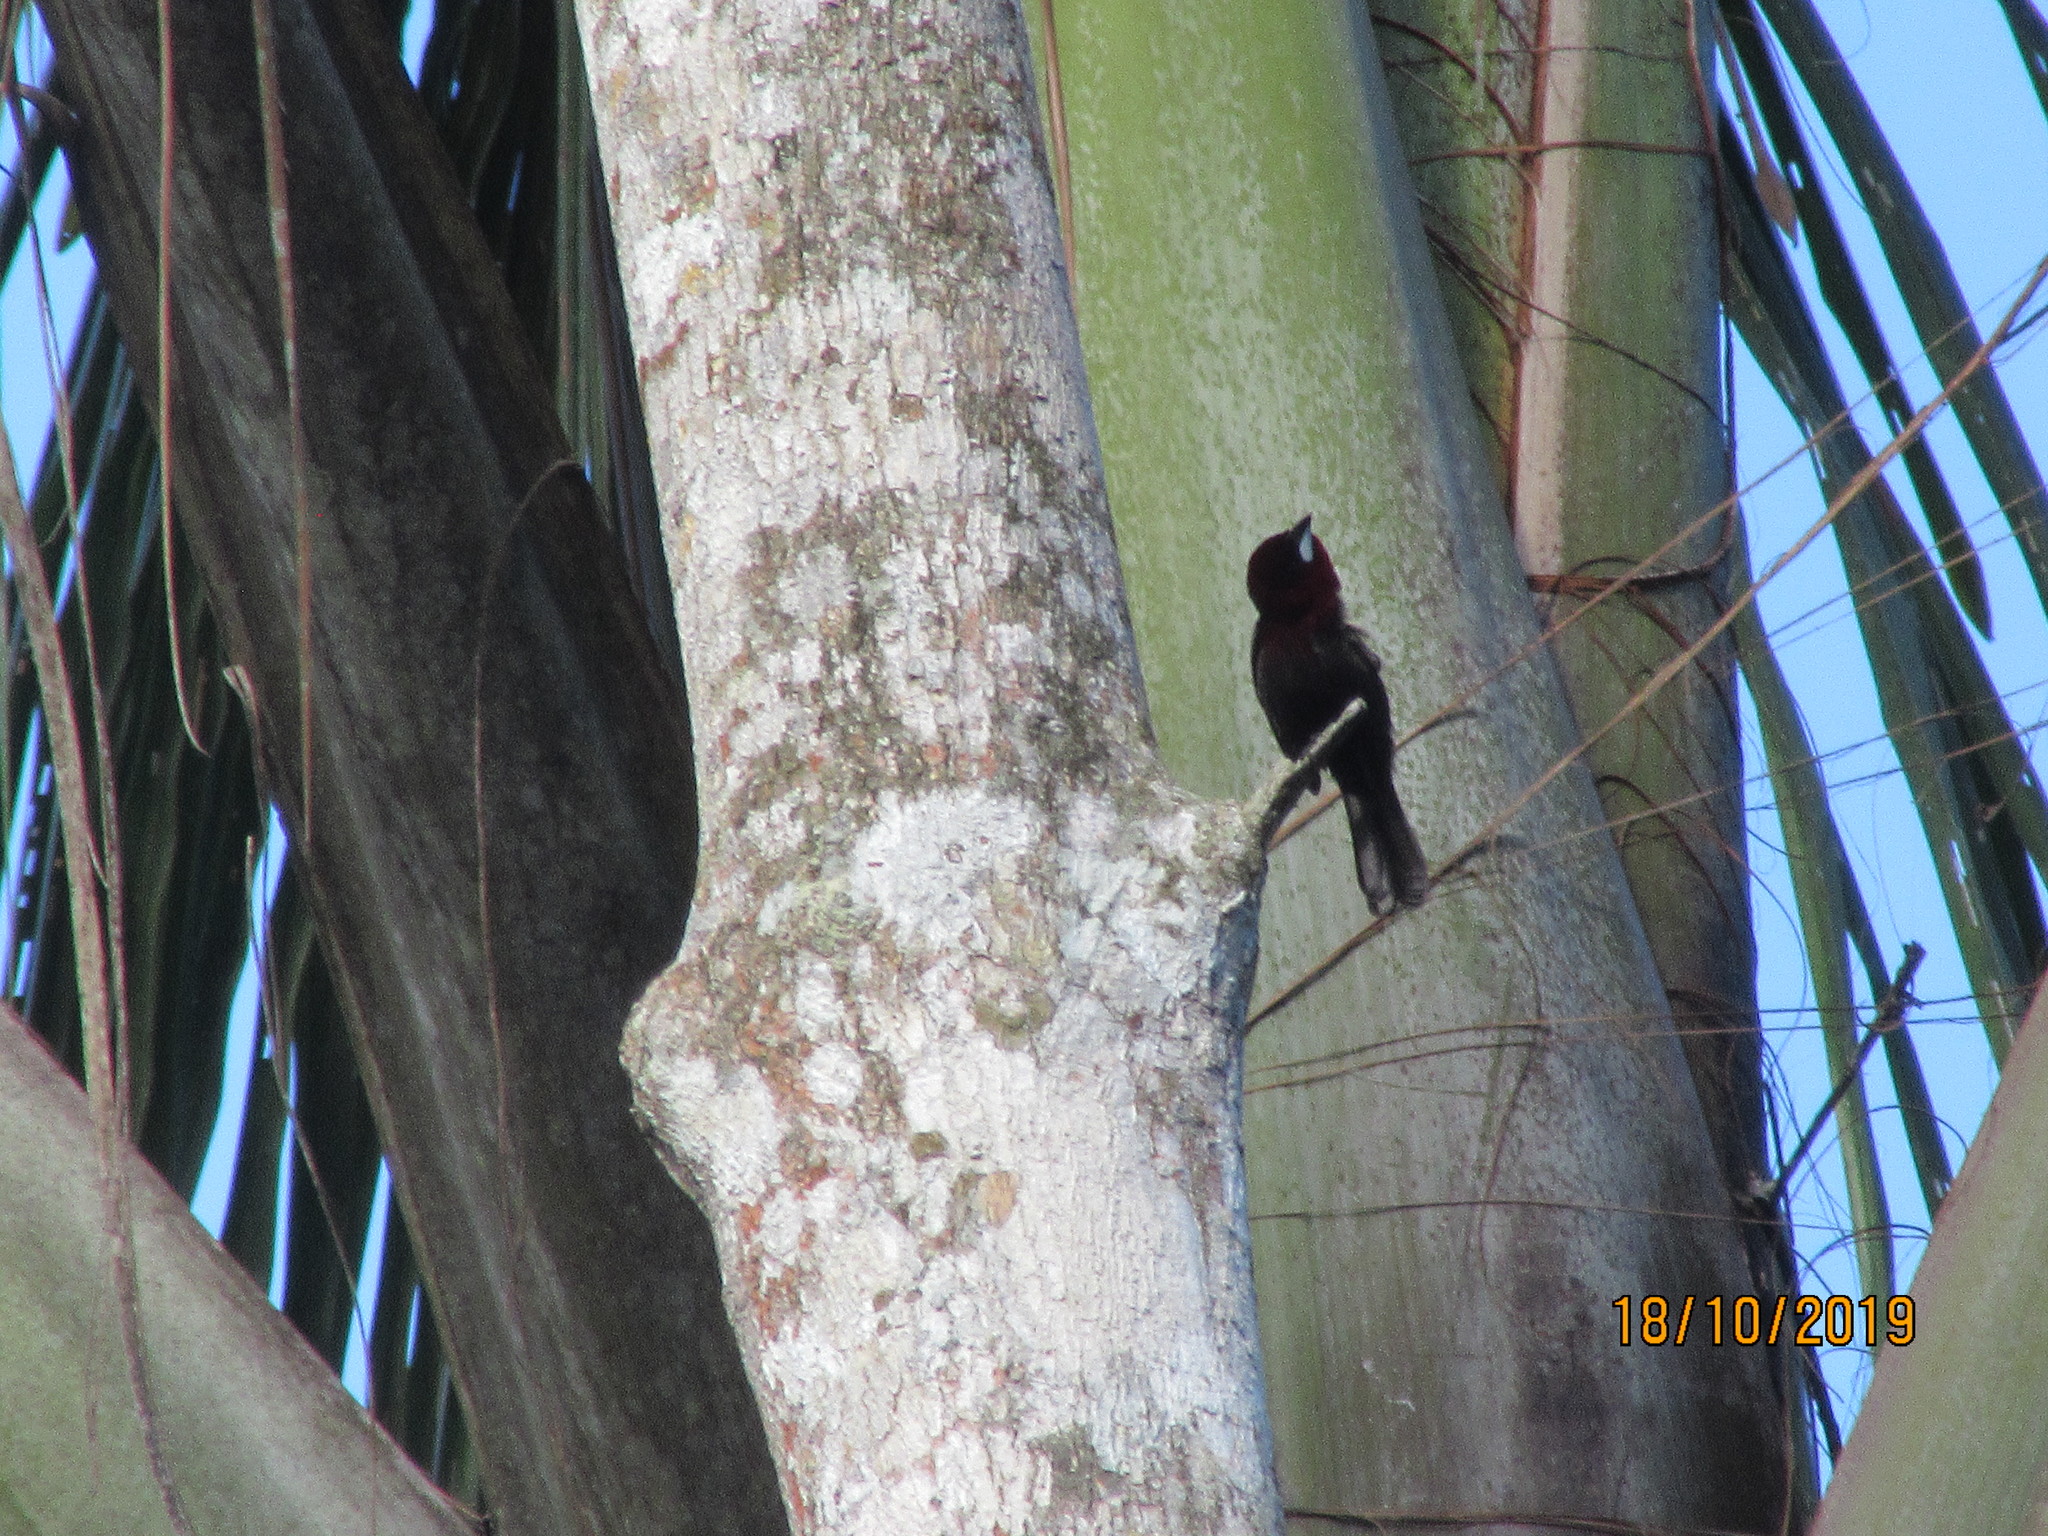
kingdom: Animalia
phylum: Chordata
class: Aves
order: Passeriformes
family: Thraupidae
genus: Ramphocelus
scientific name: Ramphocelus carbo
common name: Silver-beaked tanager
